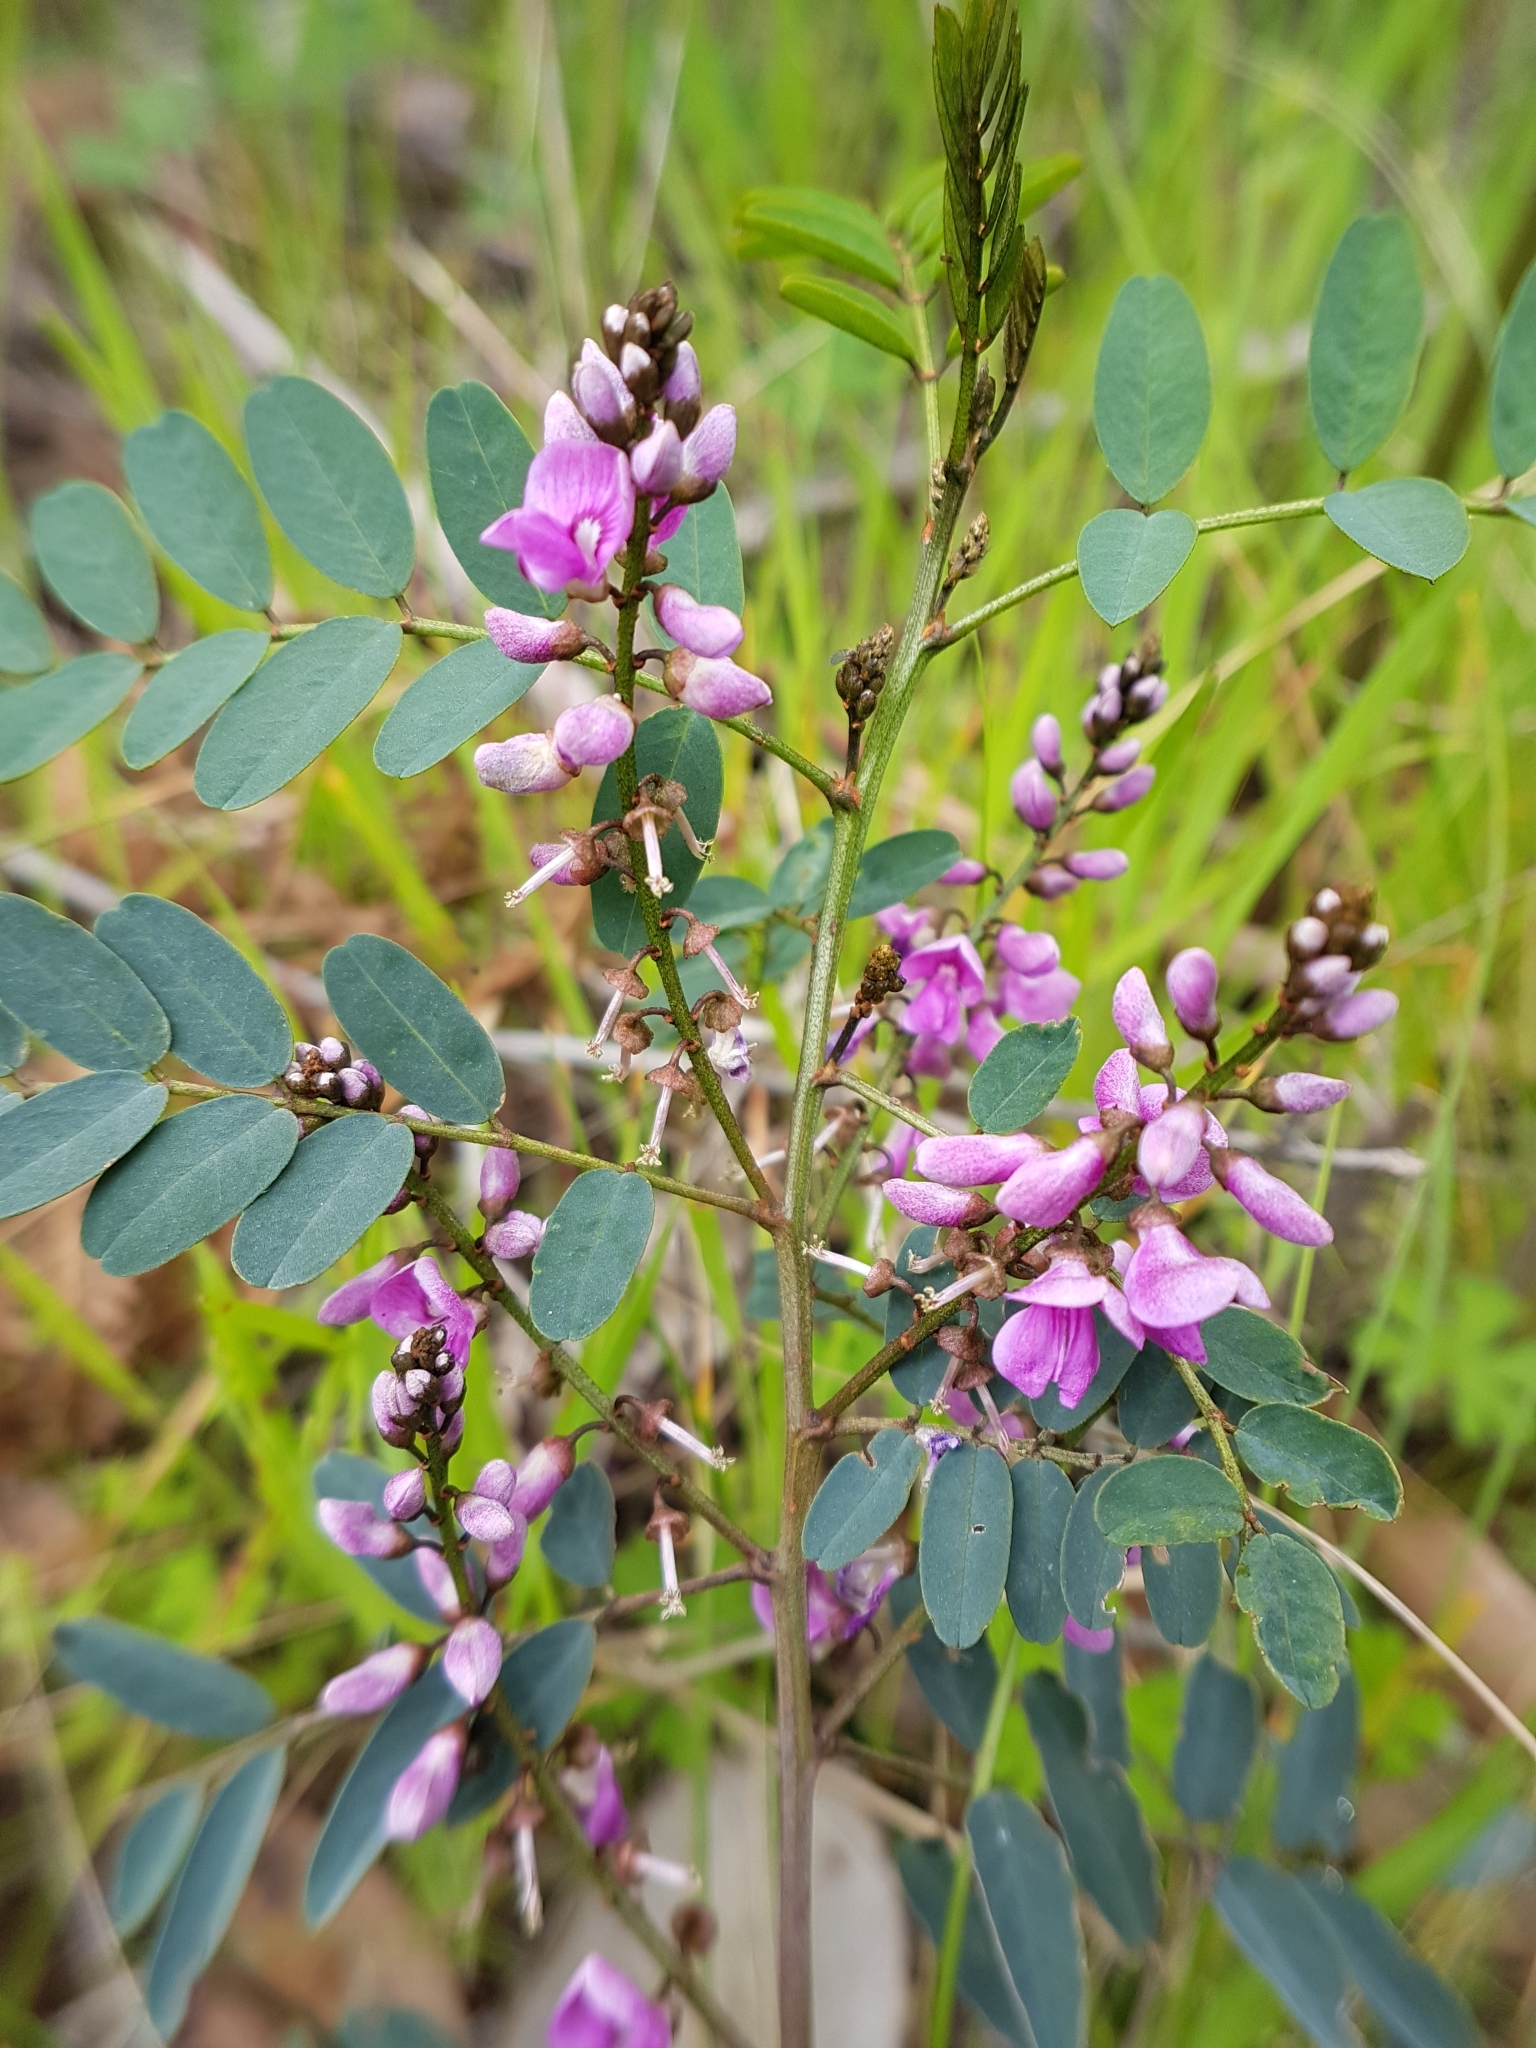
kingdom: Plantae
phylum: Tracheophyta
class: Magnoliopsida
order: Fabales
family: Fabaceae
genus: Indigofera
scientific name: Indigofera australis
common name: Australian indigo
